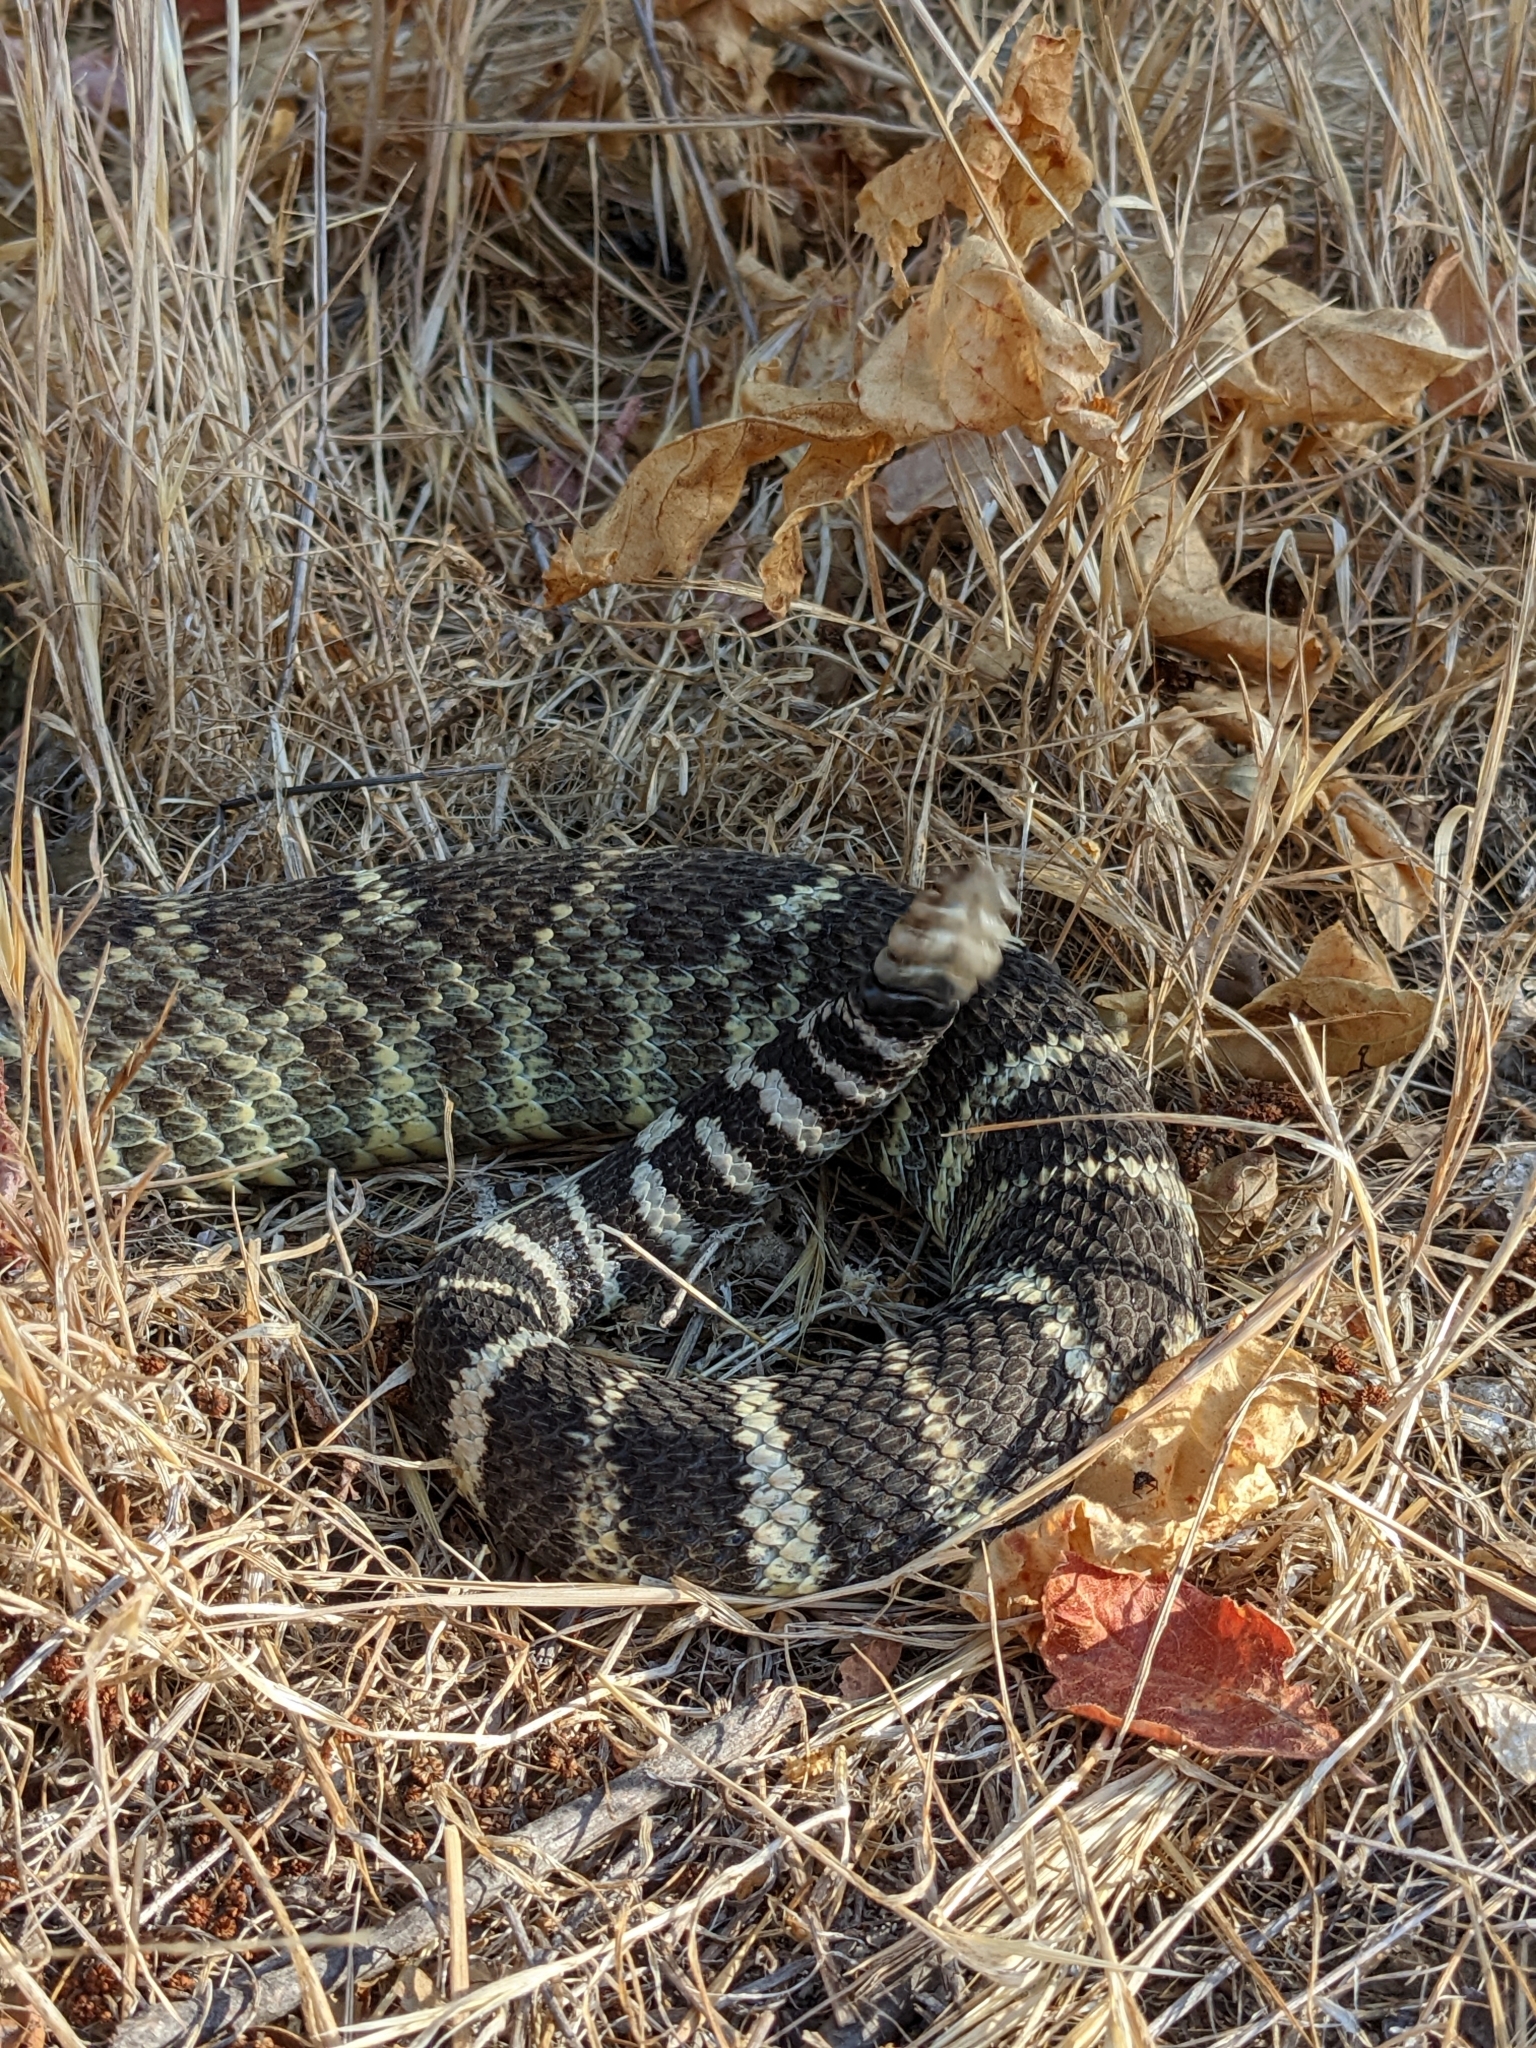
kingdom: Animalia
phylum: Chordata
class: Squamata
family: Viperidae
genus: Crotalus
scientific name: Crotalus oreganus
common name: Abyssus
